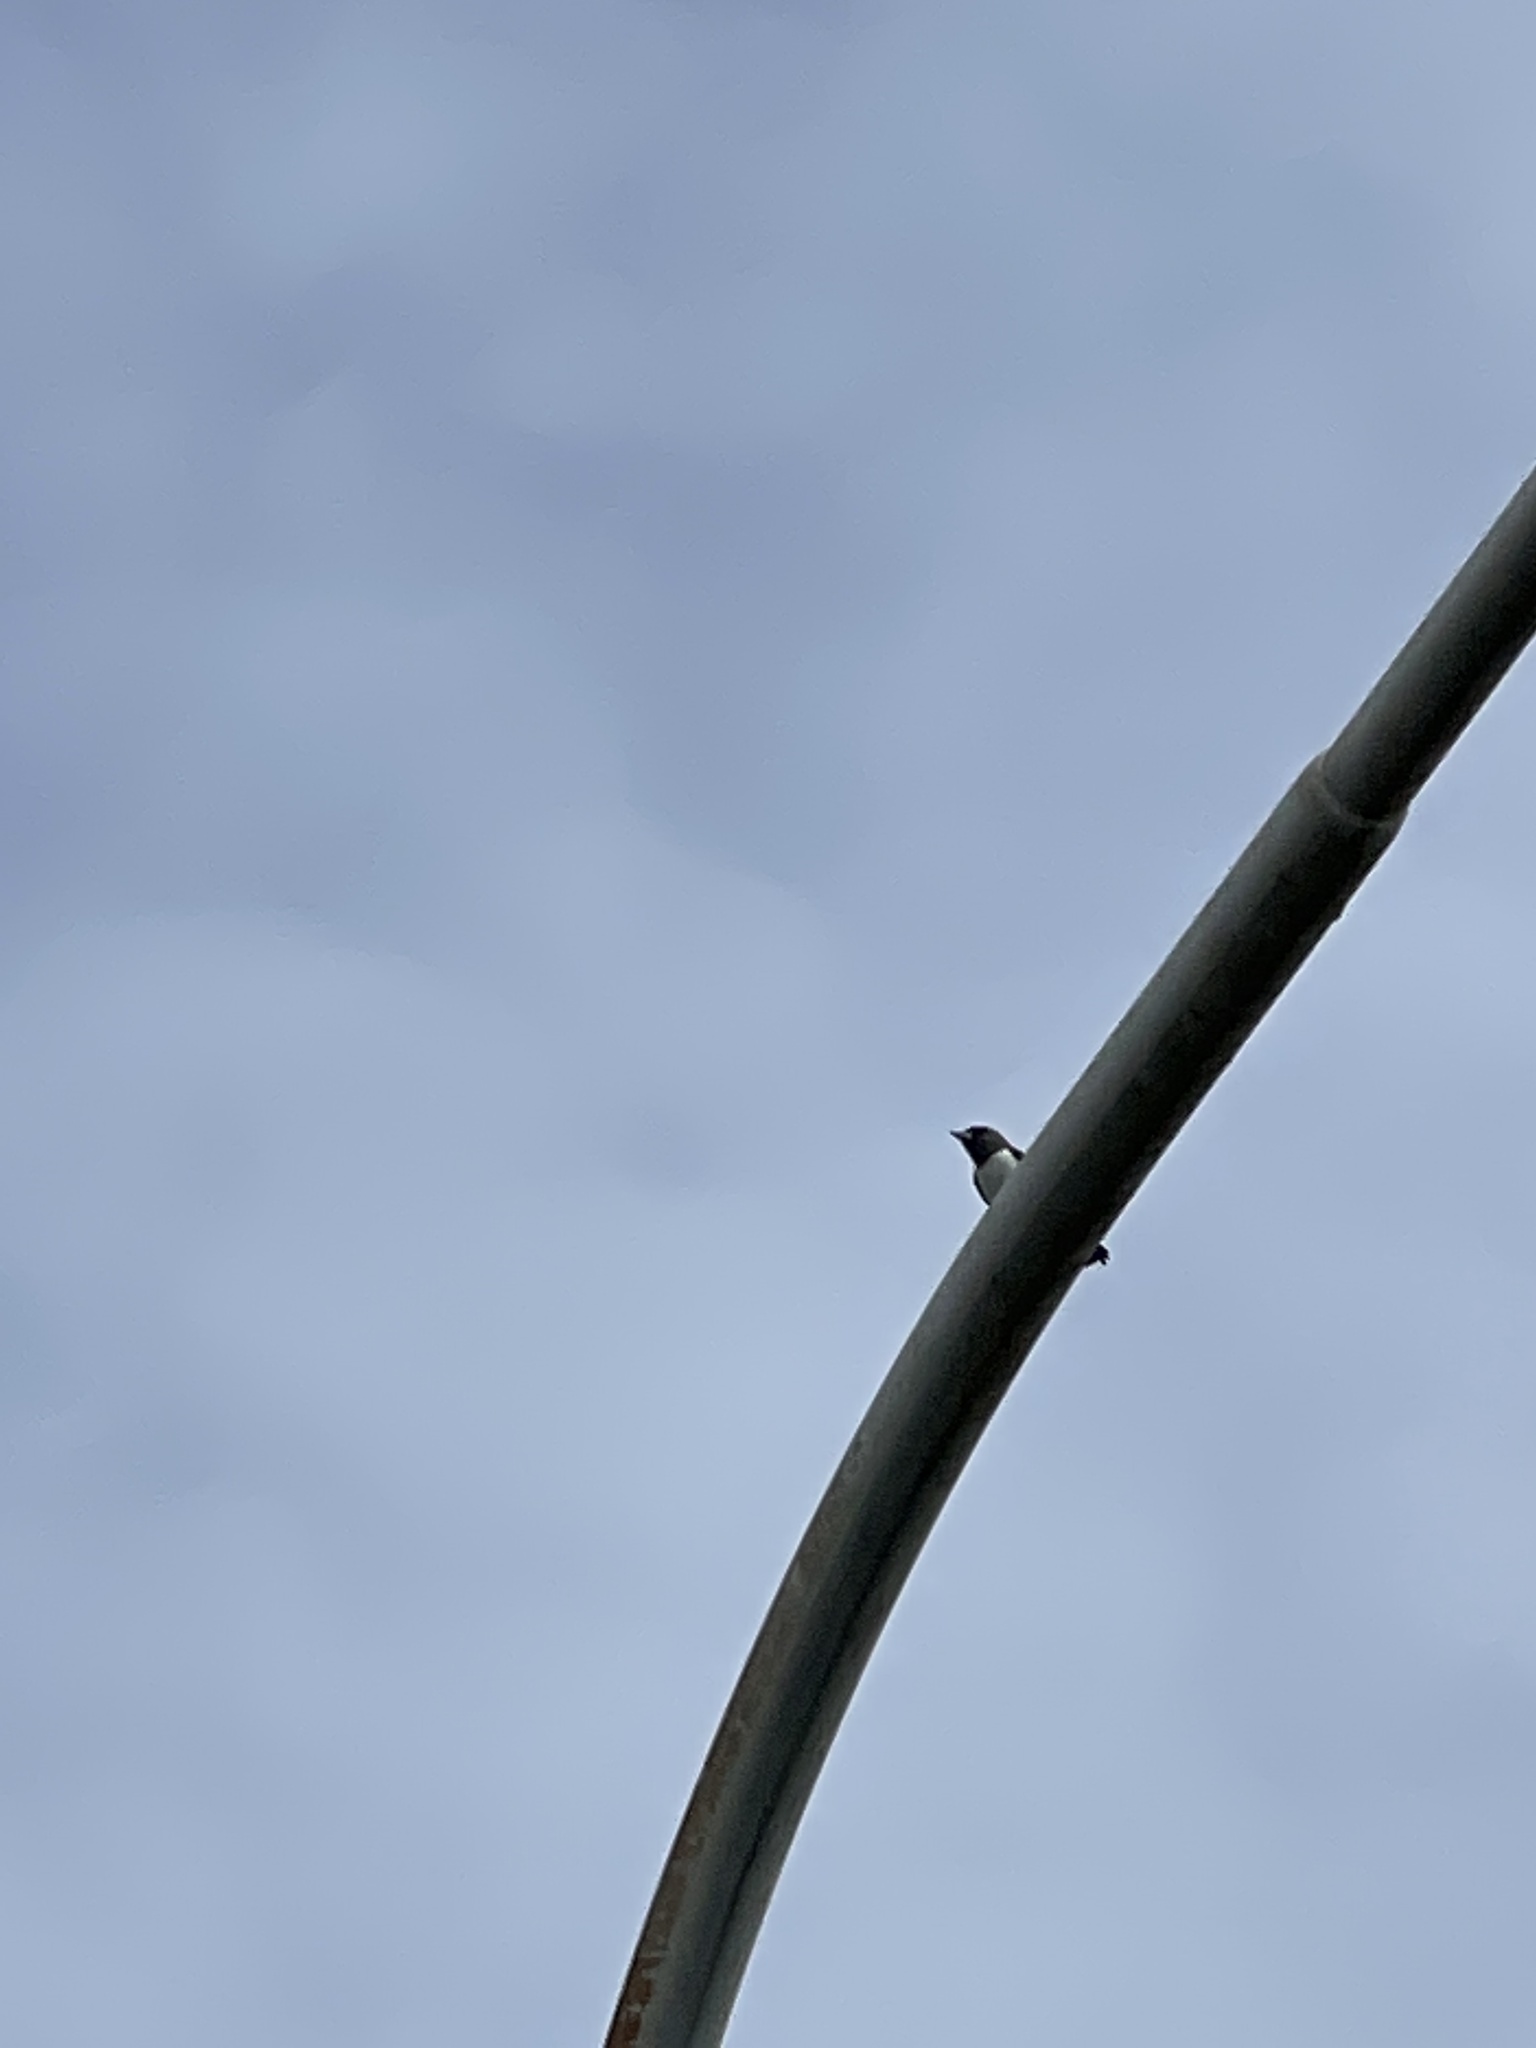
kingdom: Animalia
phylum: Chordata
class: Aves
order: Passeriformes
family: Artamidae
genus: Artamus
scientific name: Artamus leucoryn
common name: White-breasted woodswallow
